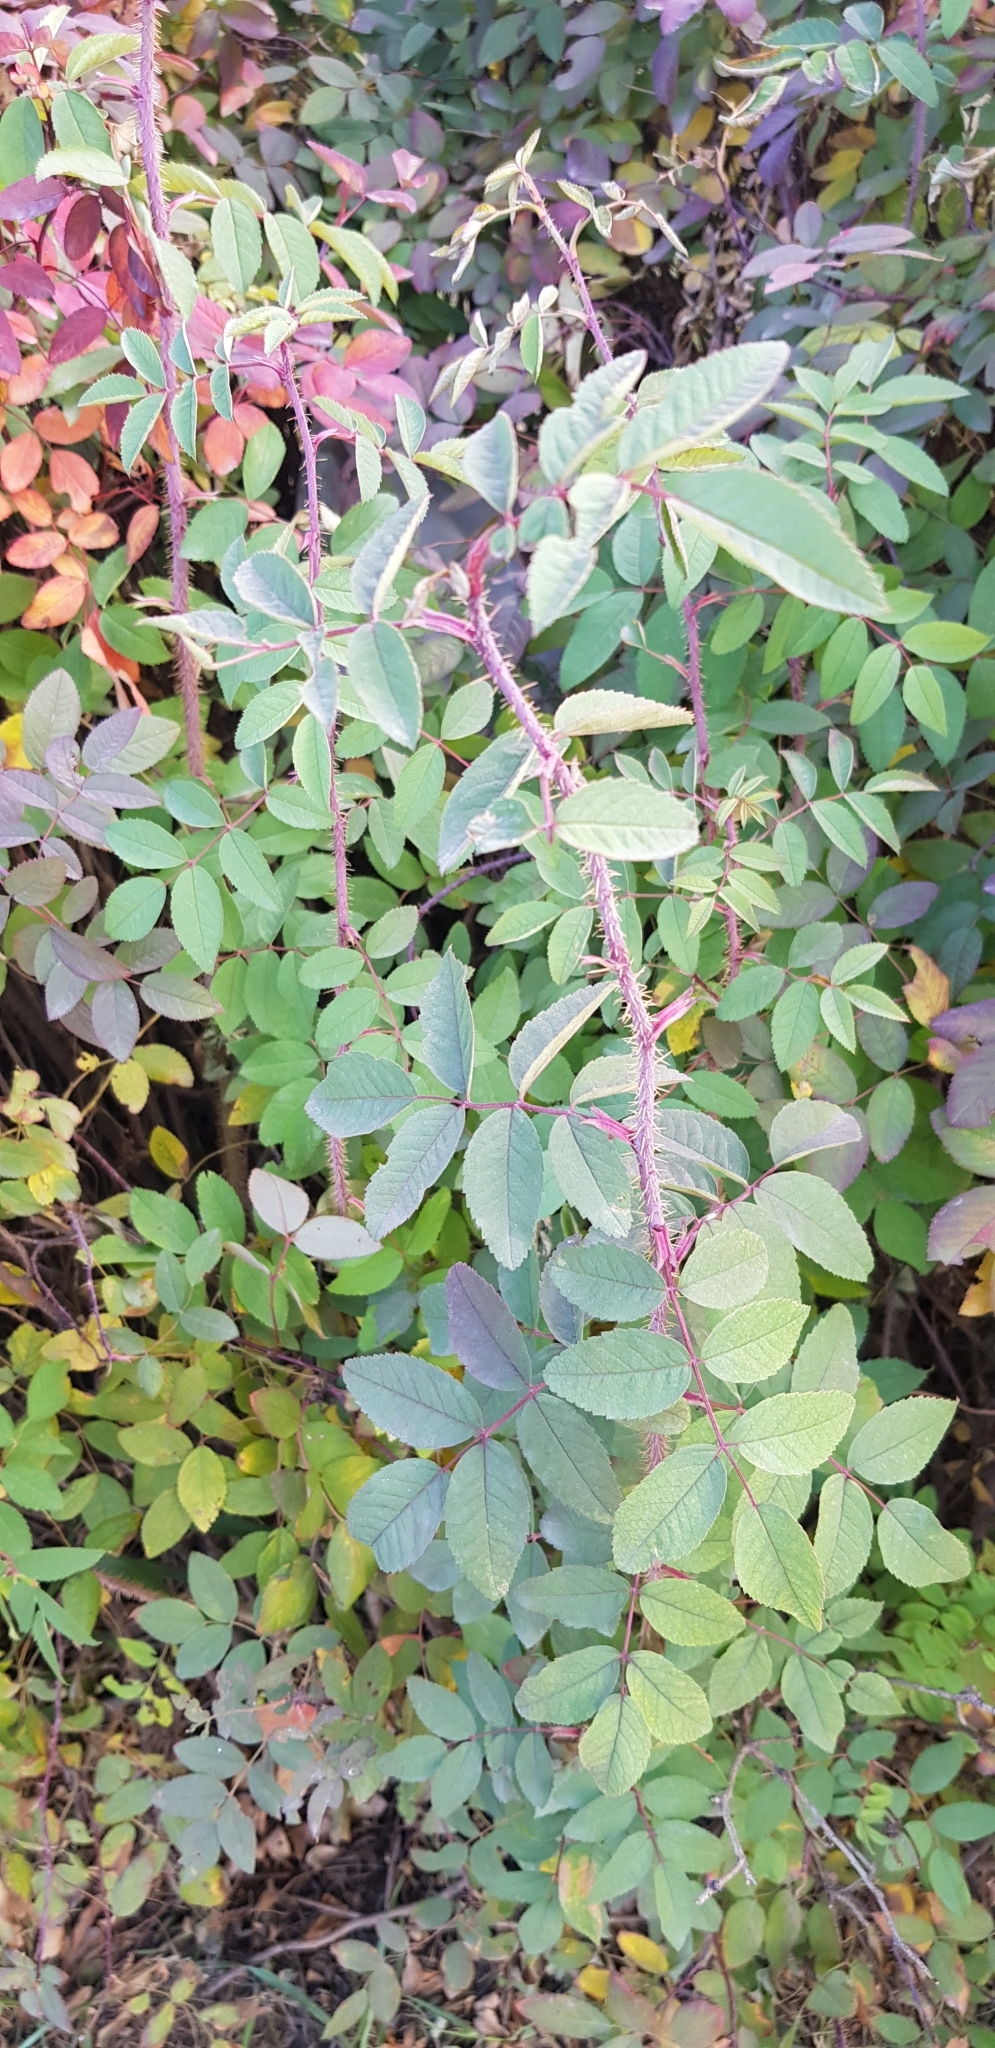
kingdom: Plantae
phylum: Tracheophyta
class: Magnoliopsida
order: Rosales
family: Rosaceae
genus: Rosa
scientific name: Rosa acicularis
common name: Prickly rose
